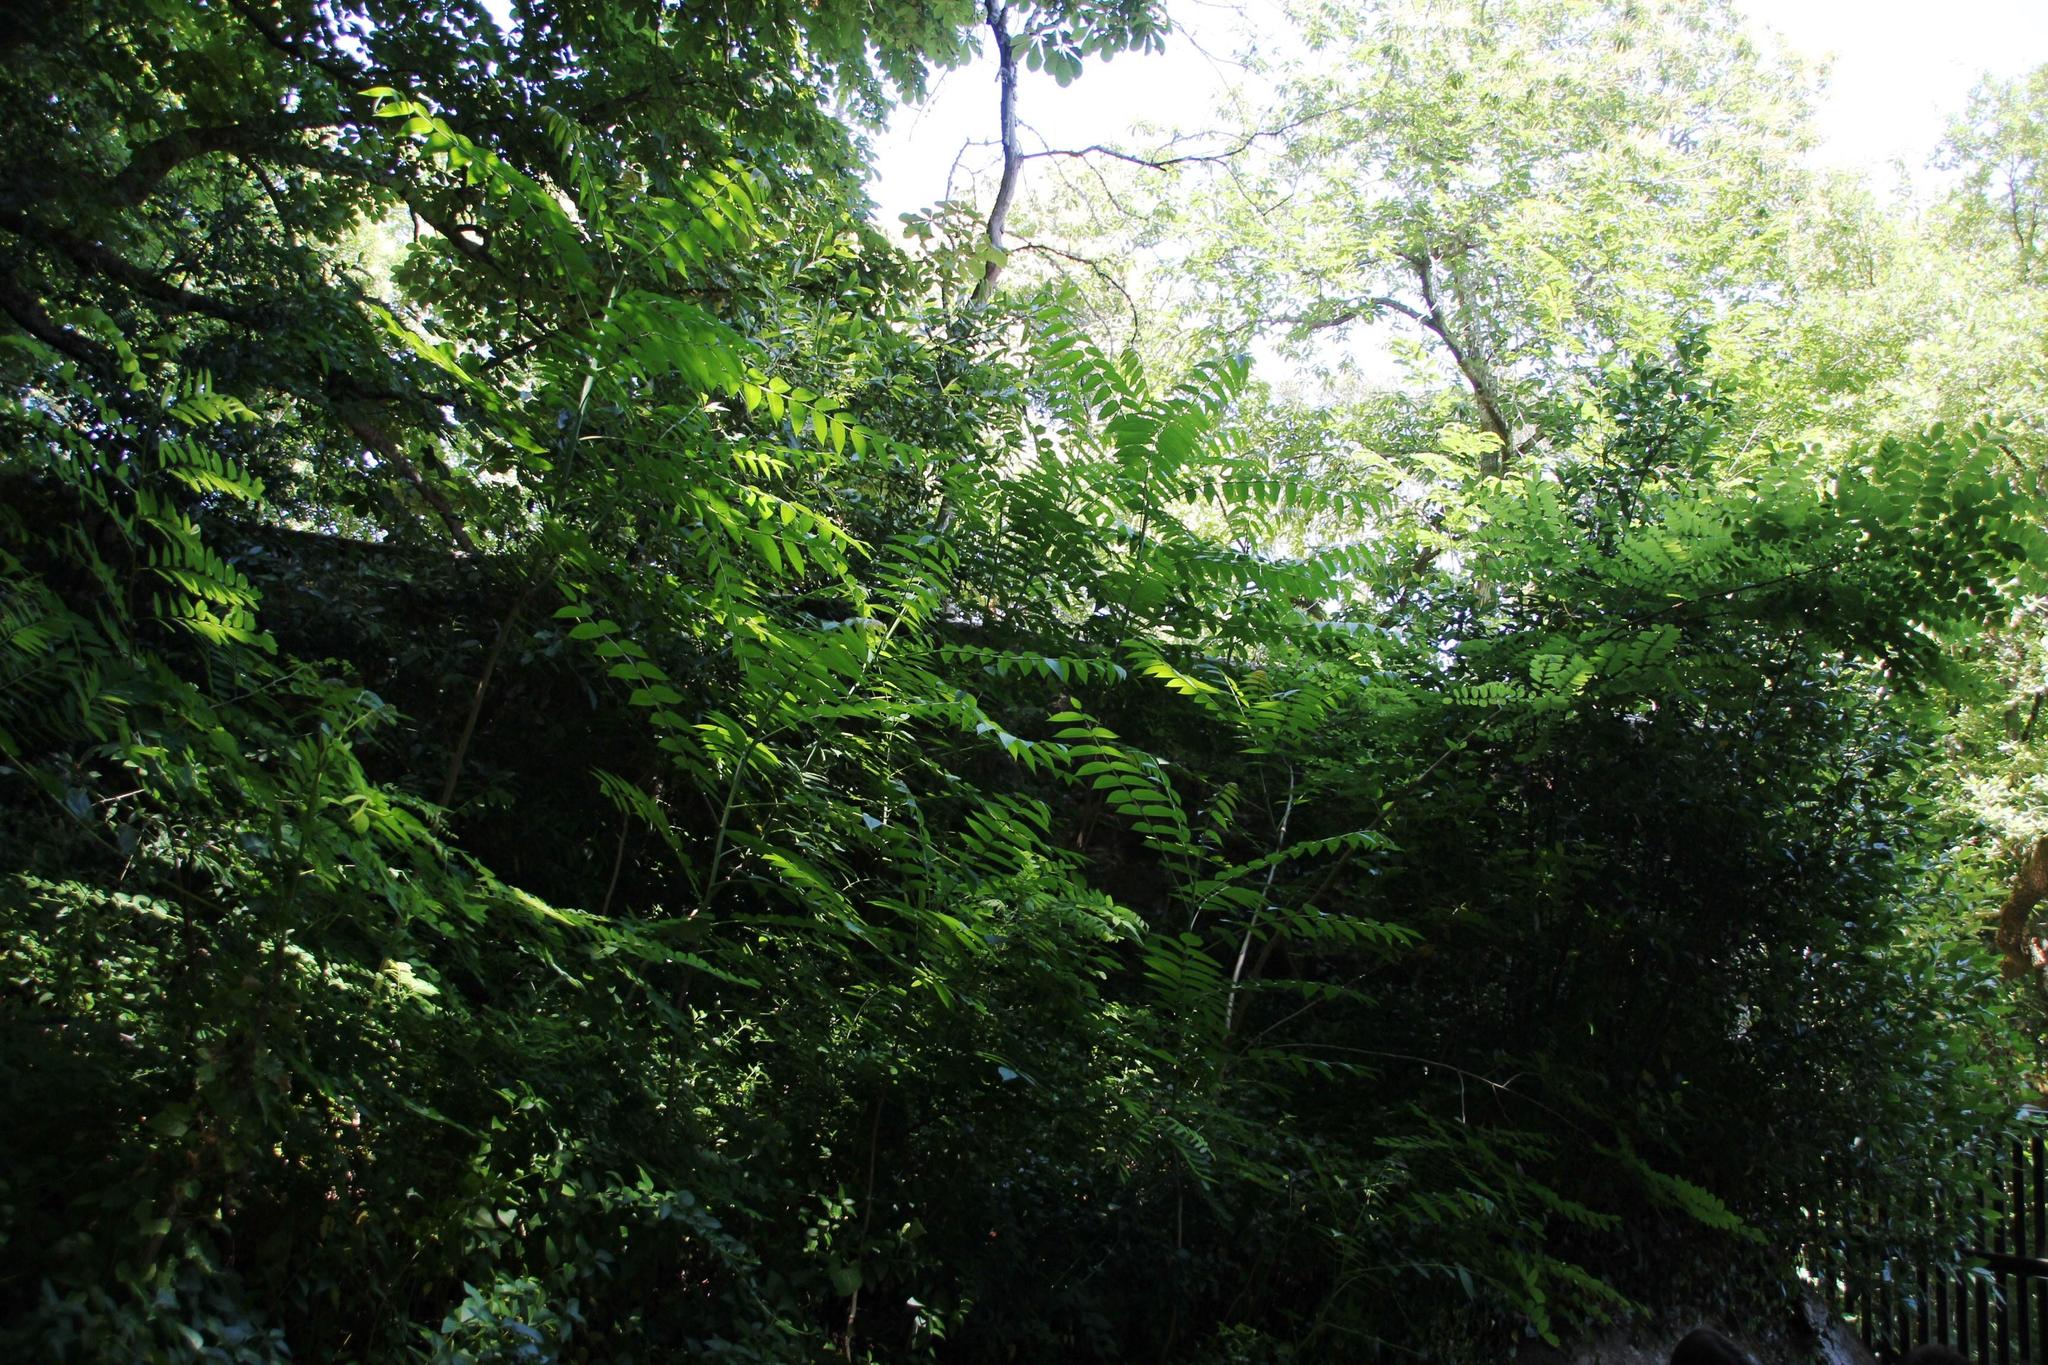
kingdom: Plantae
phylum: Tracheophyta
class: Magnoliopsida
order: Sapindales
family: Simaroubaceae
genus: Ailanthus
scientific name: Ailanthus altissima
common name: Tree-of-heaven
